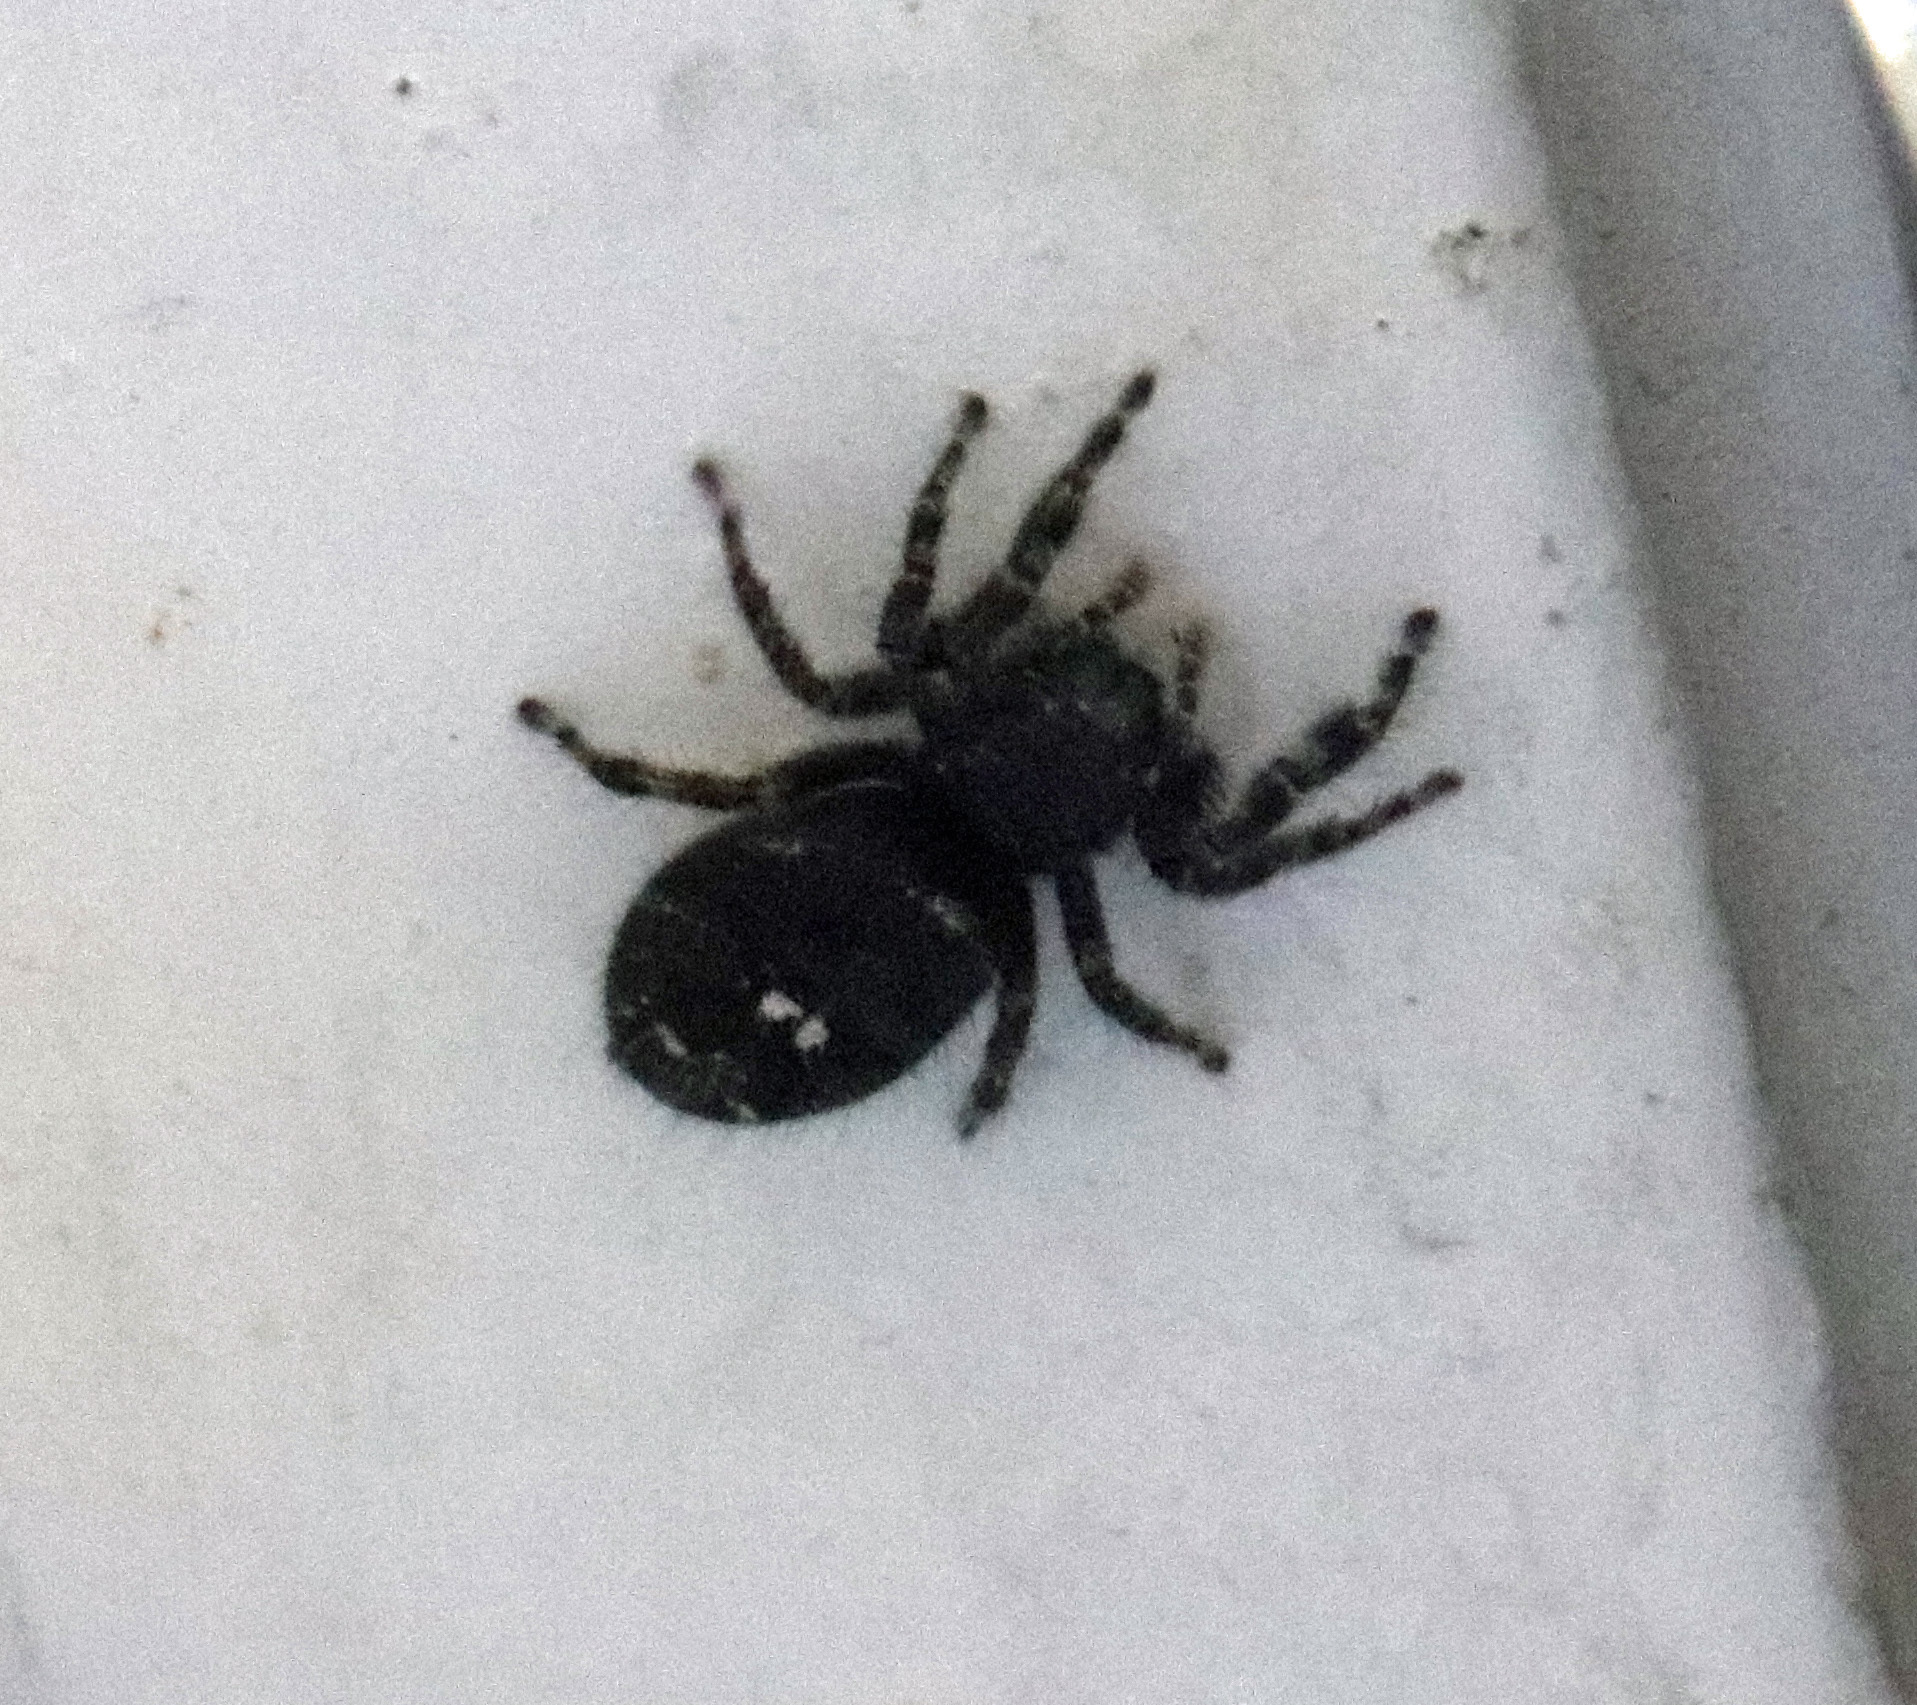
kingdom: Animalia
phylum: Arthropoda
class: Arachnida
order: Araneae
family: Salticidae
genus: Phidippus
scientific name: Phidippus audax
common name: Bold jumper
